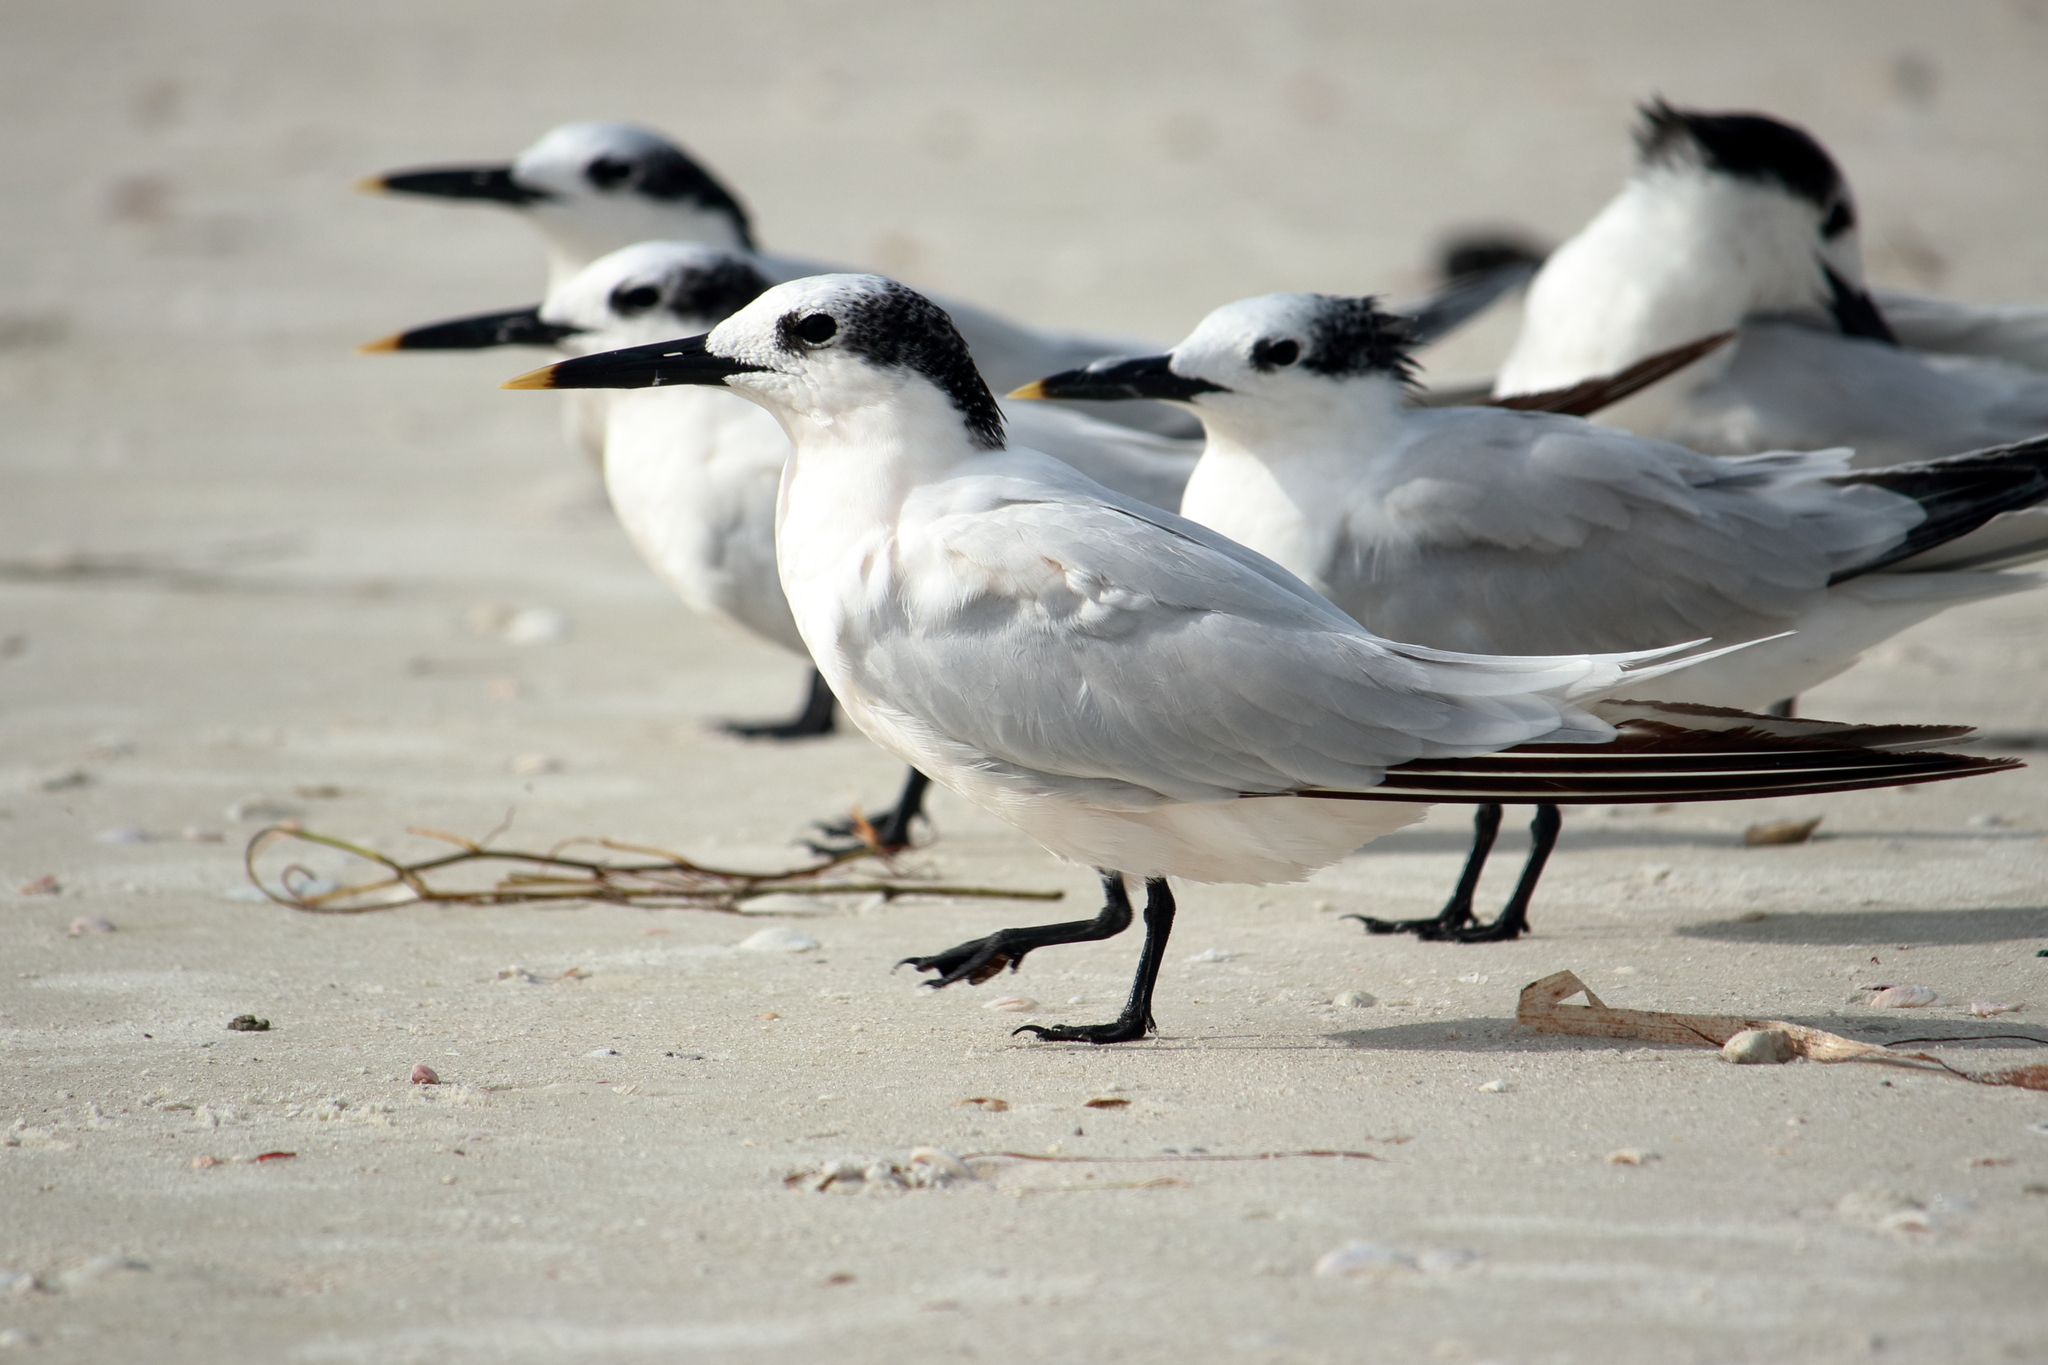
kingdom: Animalia
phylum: Chordata
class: Aves
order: Charadriiformes
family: Laridae
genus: Thalasseus
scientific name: Thalasseus sandvicensis
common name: Sandwich tern
